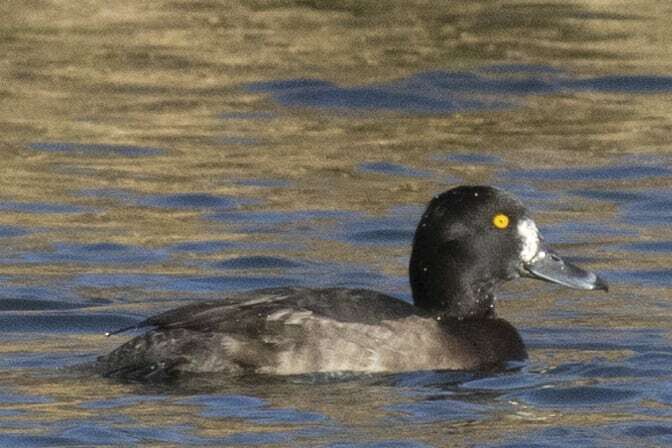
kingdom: Animalia
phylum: Chordata
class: Aves
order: Anseriformes
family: Anatidae
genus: Aythya
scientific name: Aythya fuligula
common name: Tufted duck
